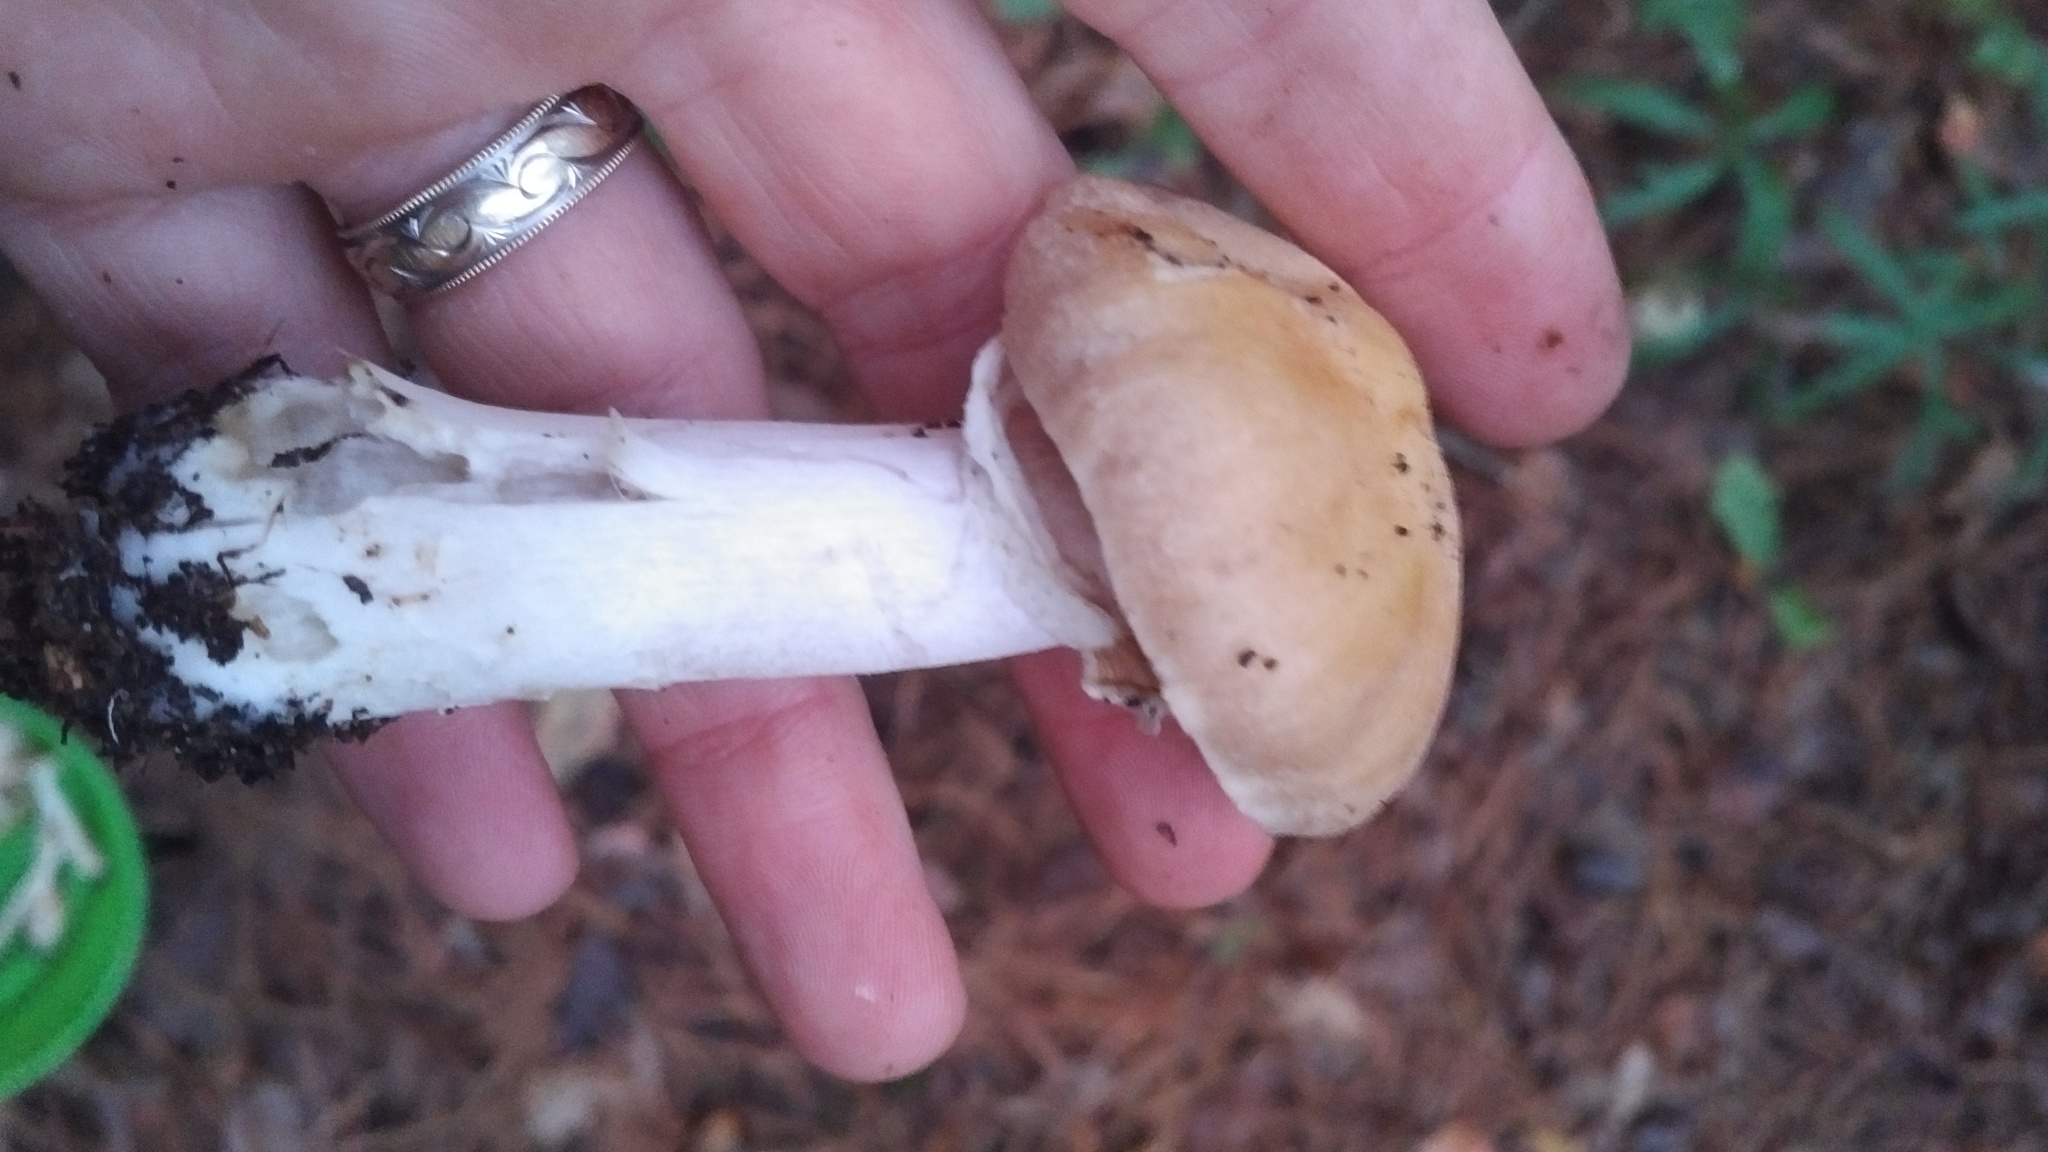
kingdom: Fungi
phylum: Basidiomycota
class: Agaricomycetes
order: Agaricales
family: Cortinariaceae
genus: Cortinarius
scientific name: Cortinarius caperatus
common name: The gypsy
